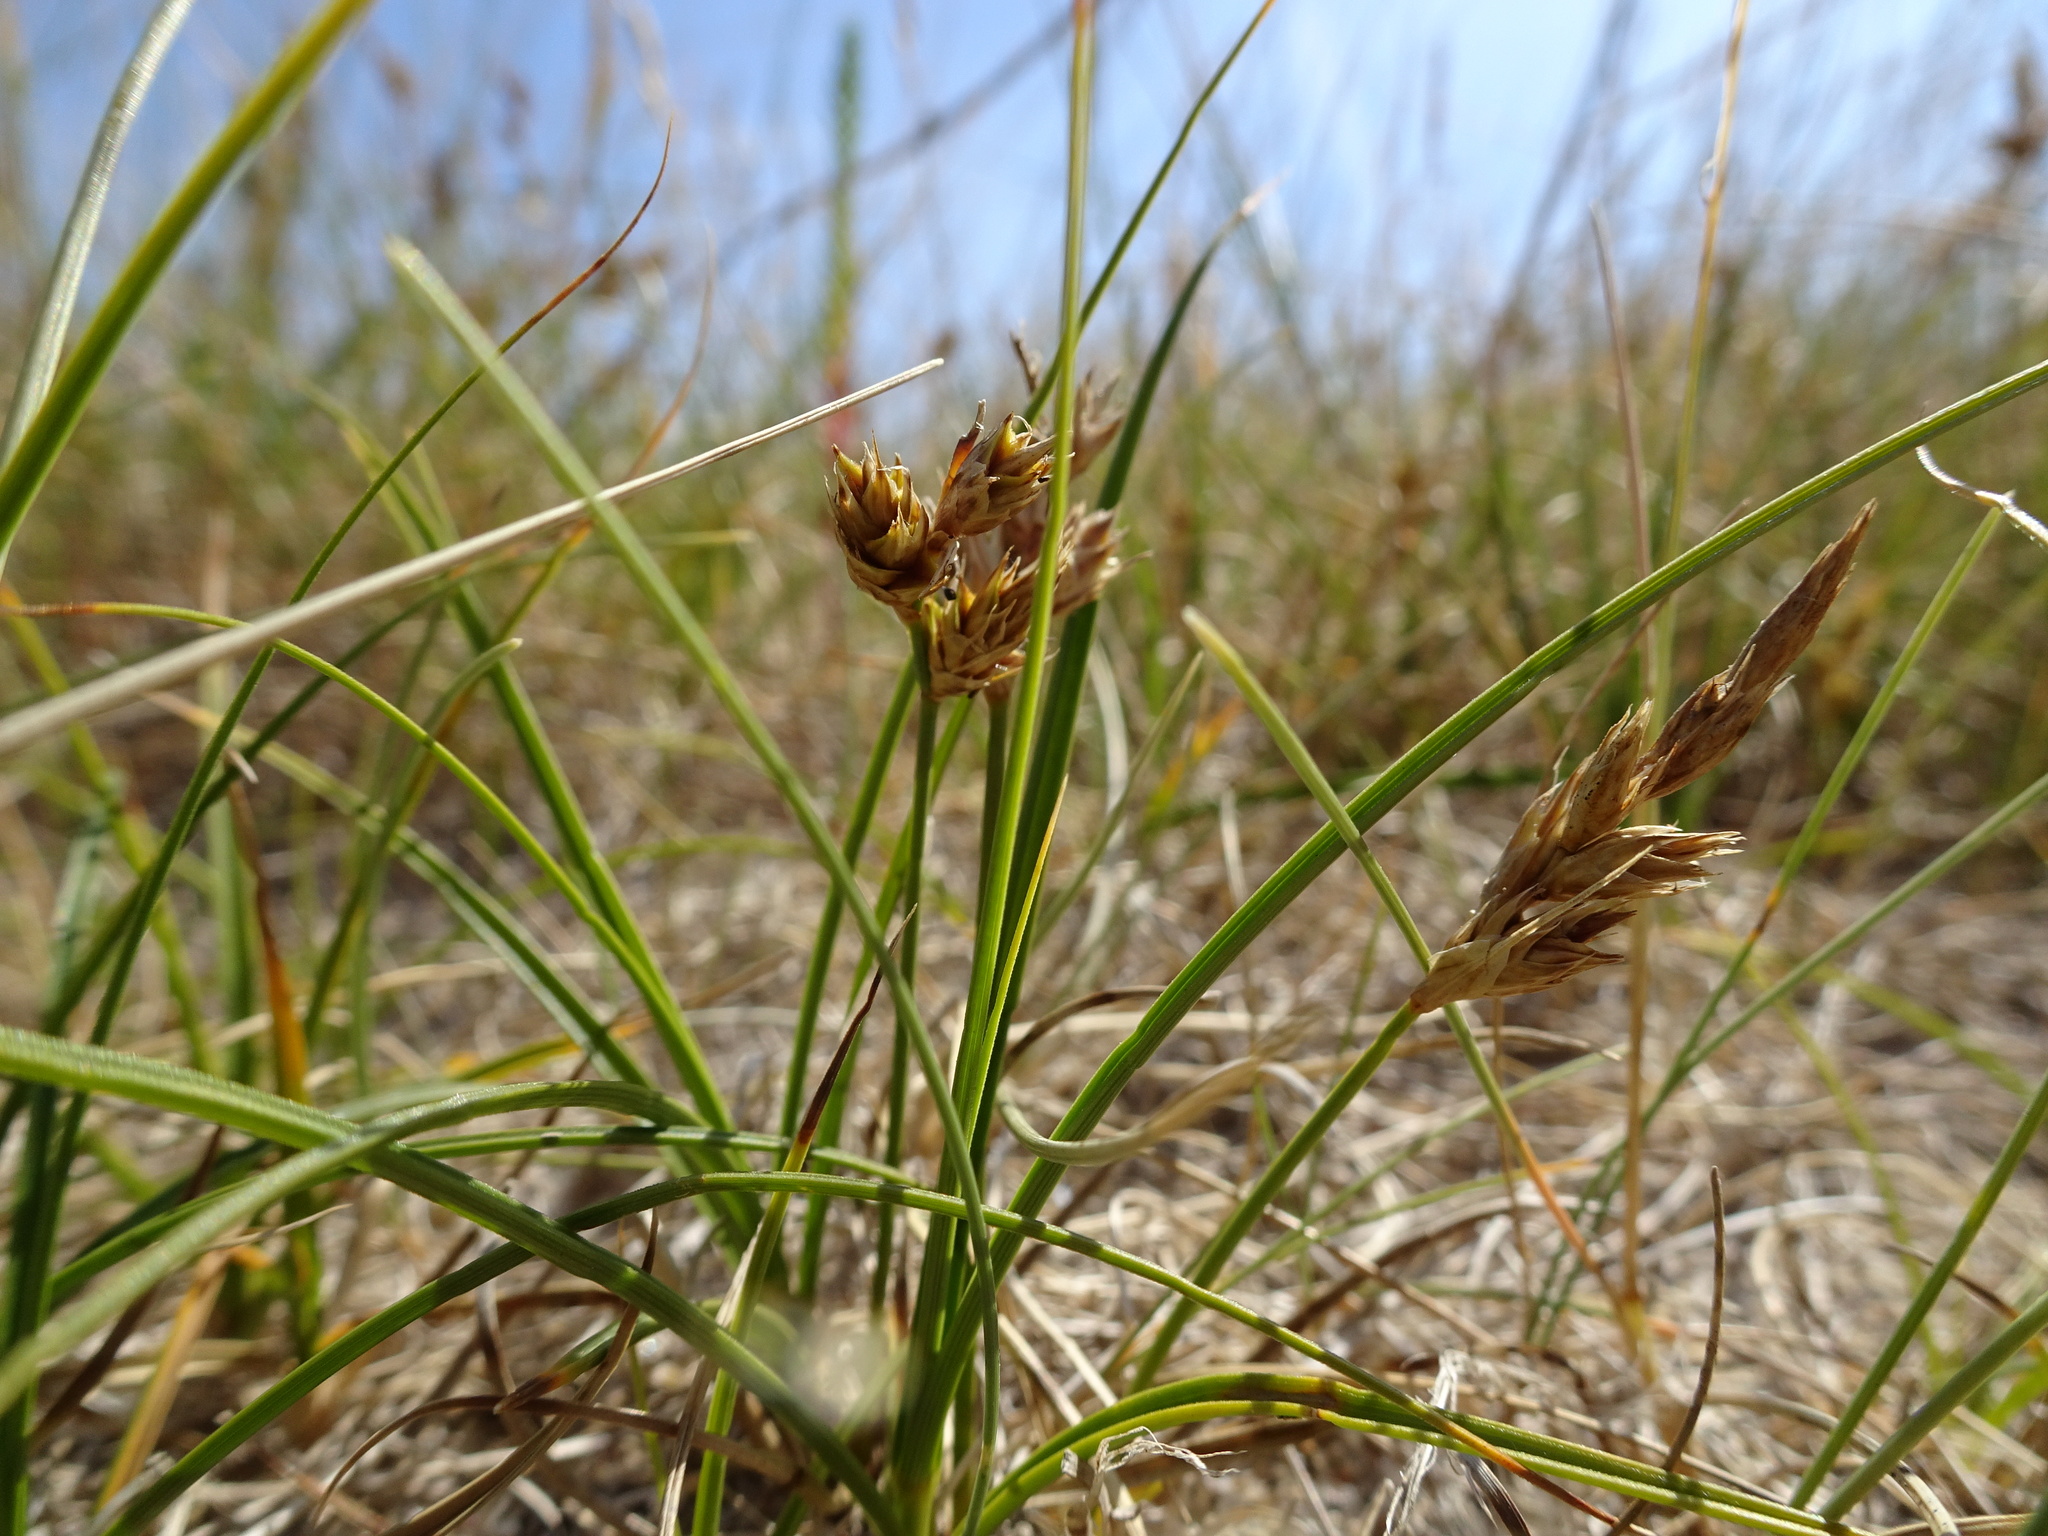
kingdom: Plantae
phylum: Tracheophyta
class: Liliopsida
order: Poales
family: Cyperaceae
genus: Carex
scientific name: Carex arenaria
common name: Sand sedge
